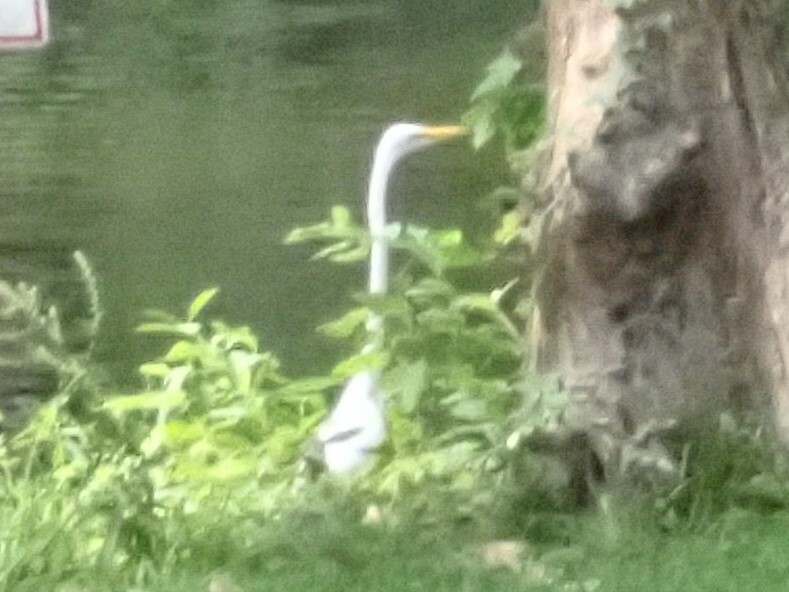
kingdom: Animalia
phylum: Chordata
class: Aves
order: Pelecaniformes
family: Ardeidae
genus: Ardea
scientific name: Ardea alba
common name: Great egret
